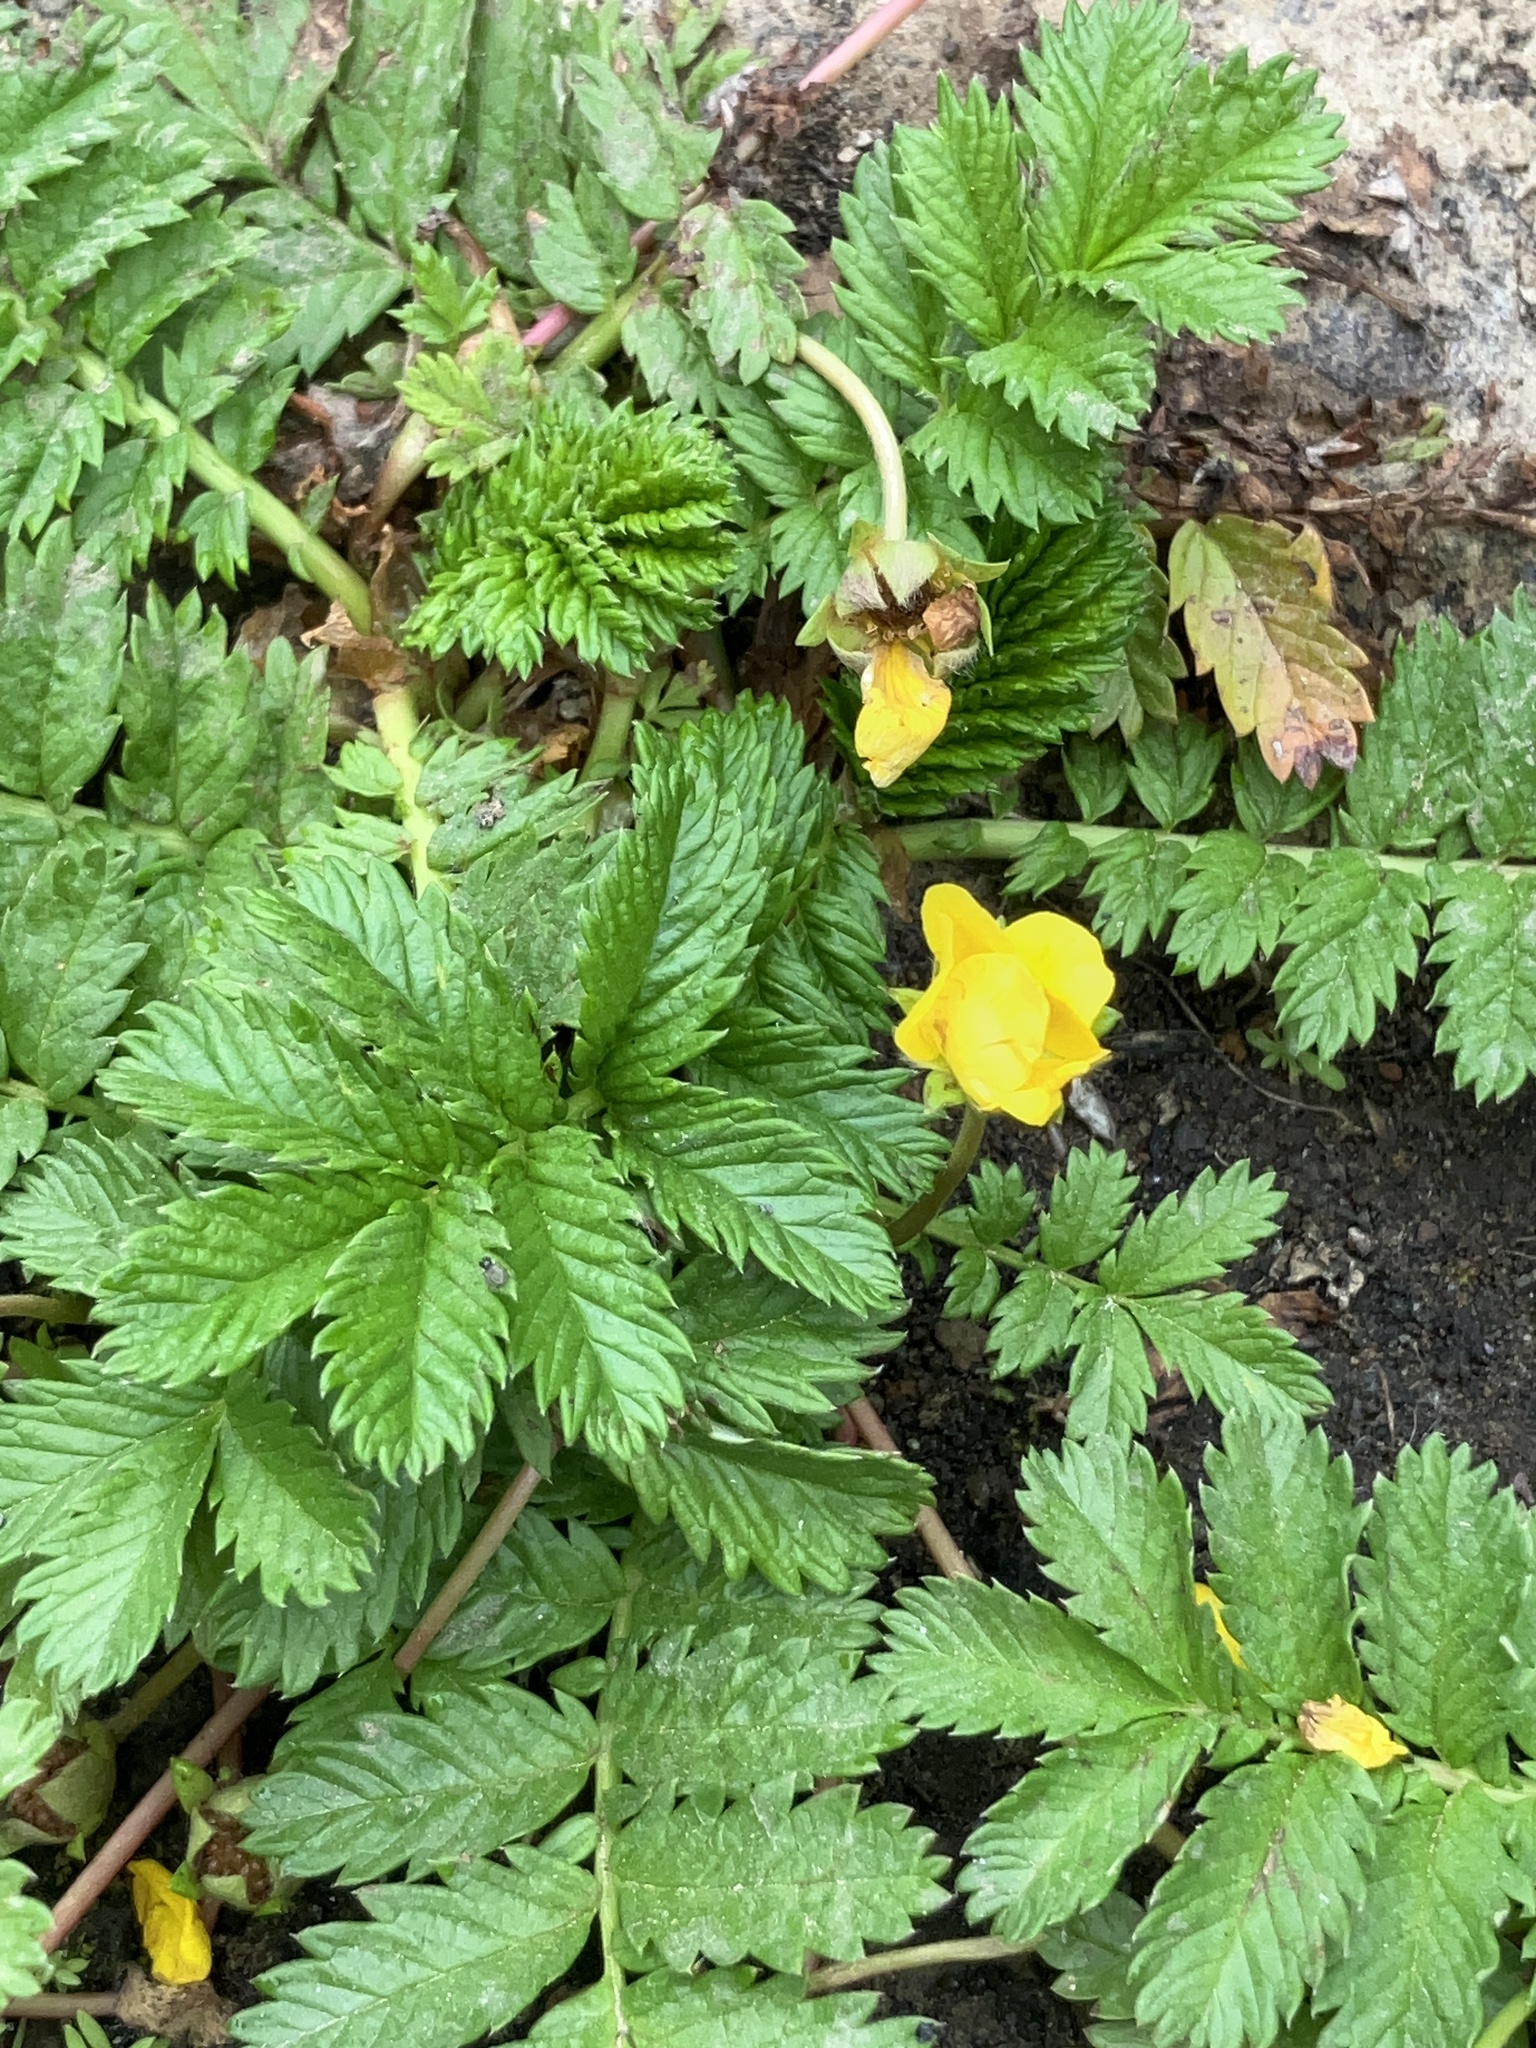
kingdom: Plantae
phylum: Tracheophyta
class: Magnoliopsida
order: Rosales
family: Rosaceae
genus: Argentina
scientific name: Argentina anserina
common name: Common silverweed
